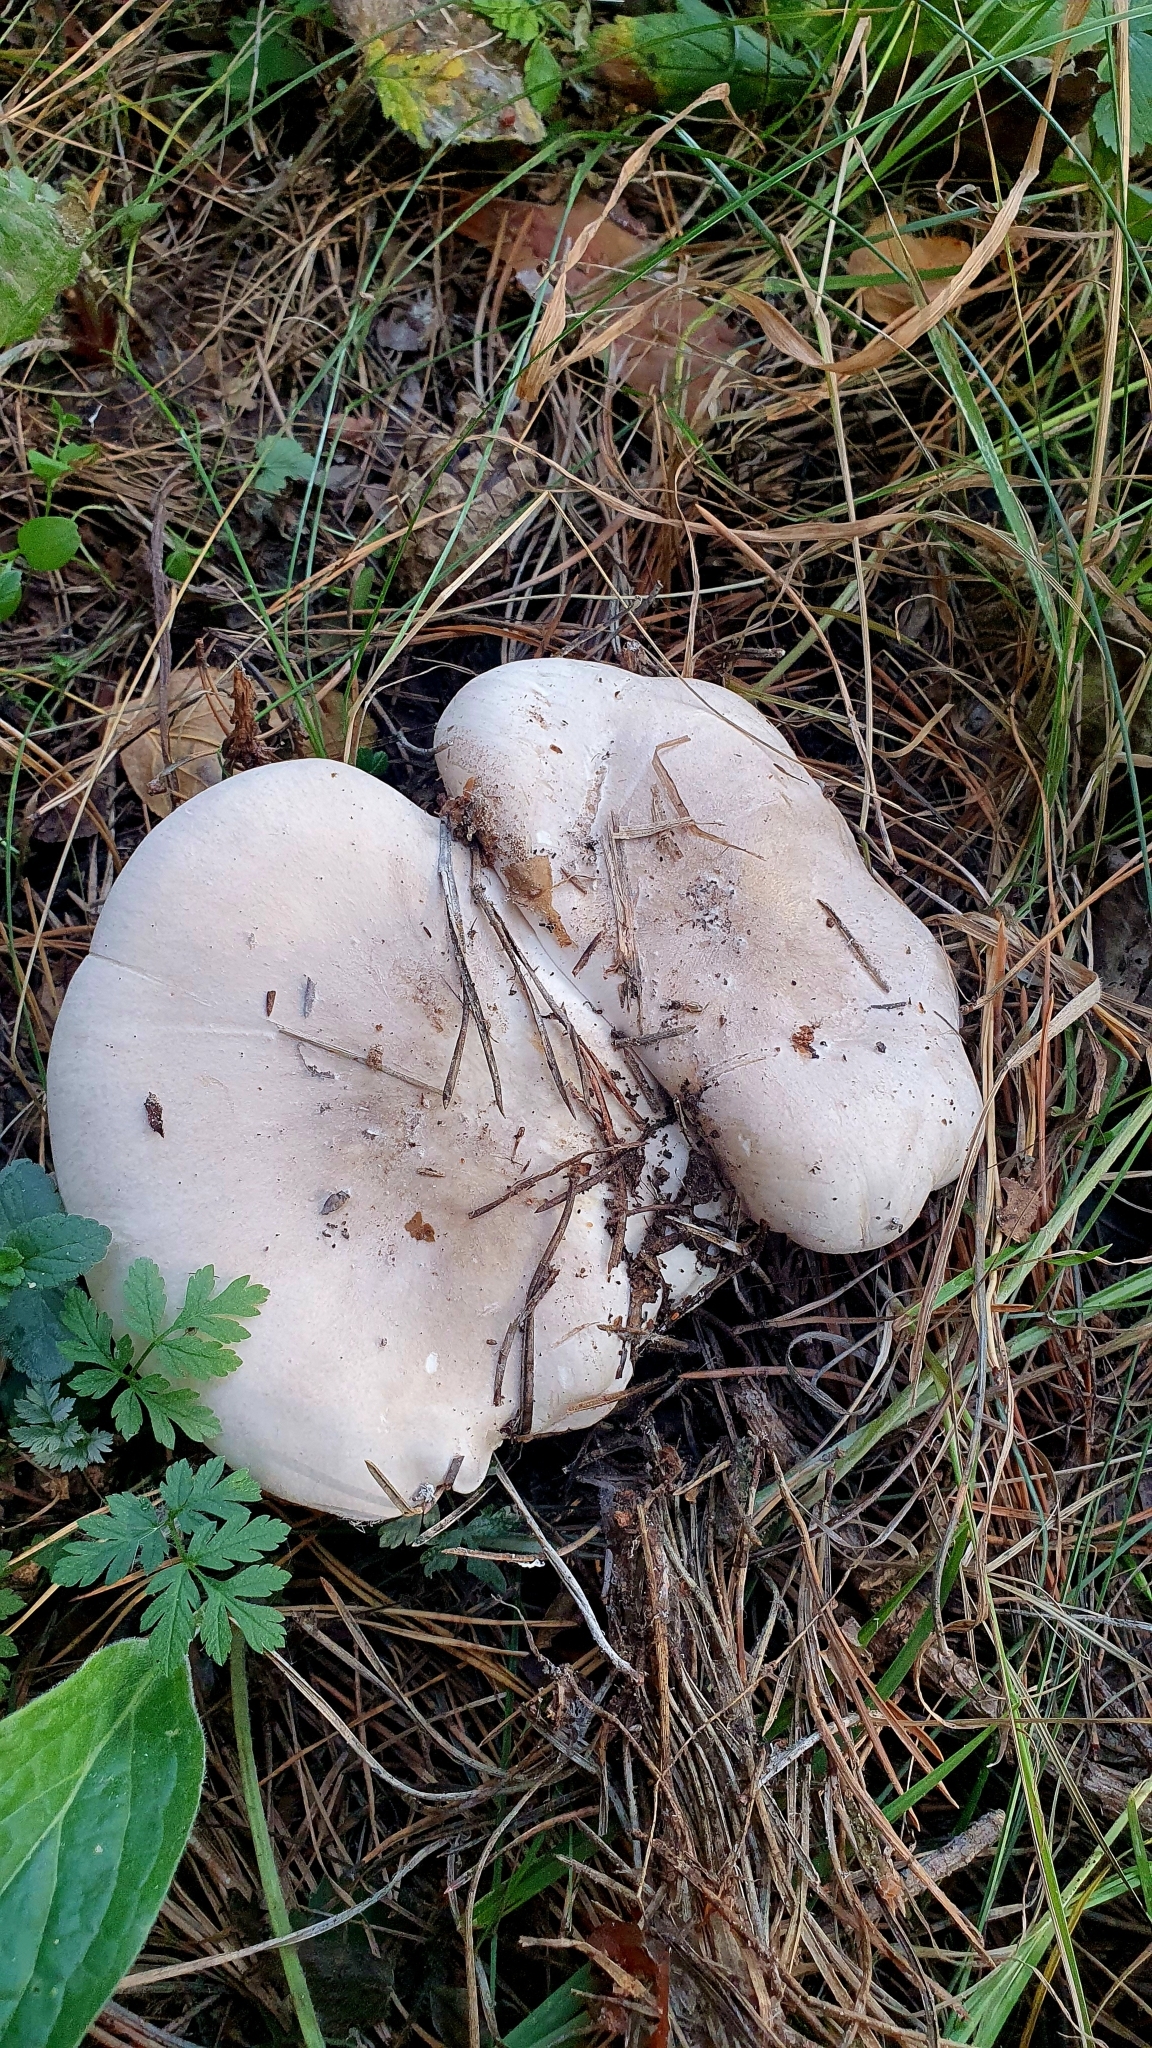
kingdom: Fungi
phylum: Basidiomycota
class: Agaricomycetes
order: Agaricales
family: Tricholomataceae
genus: Clitocybe
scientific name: Clitocybe nebularis
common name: Clouded agaric
